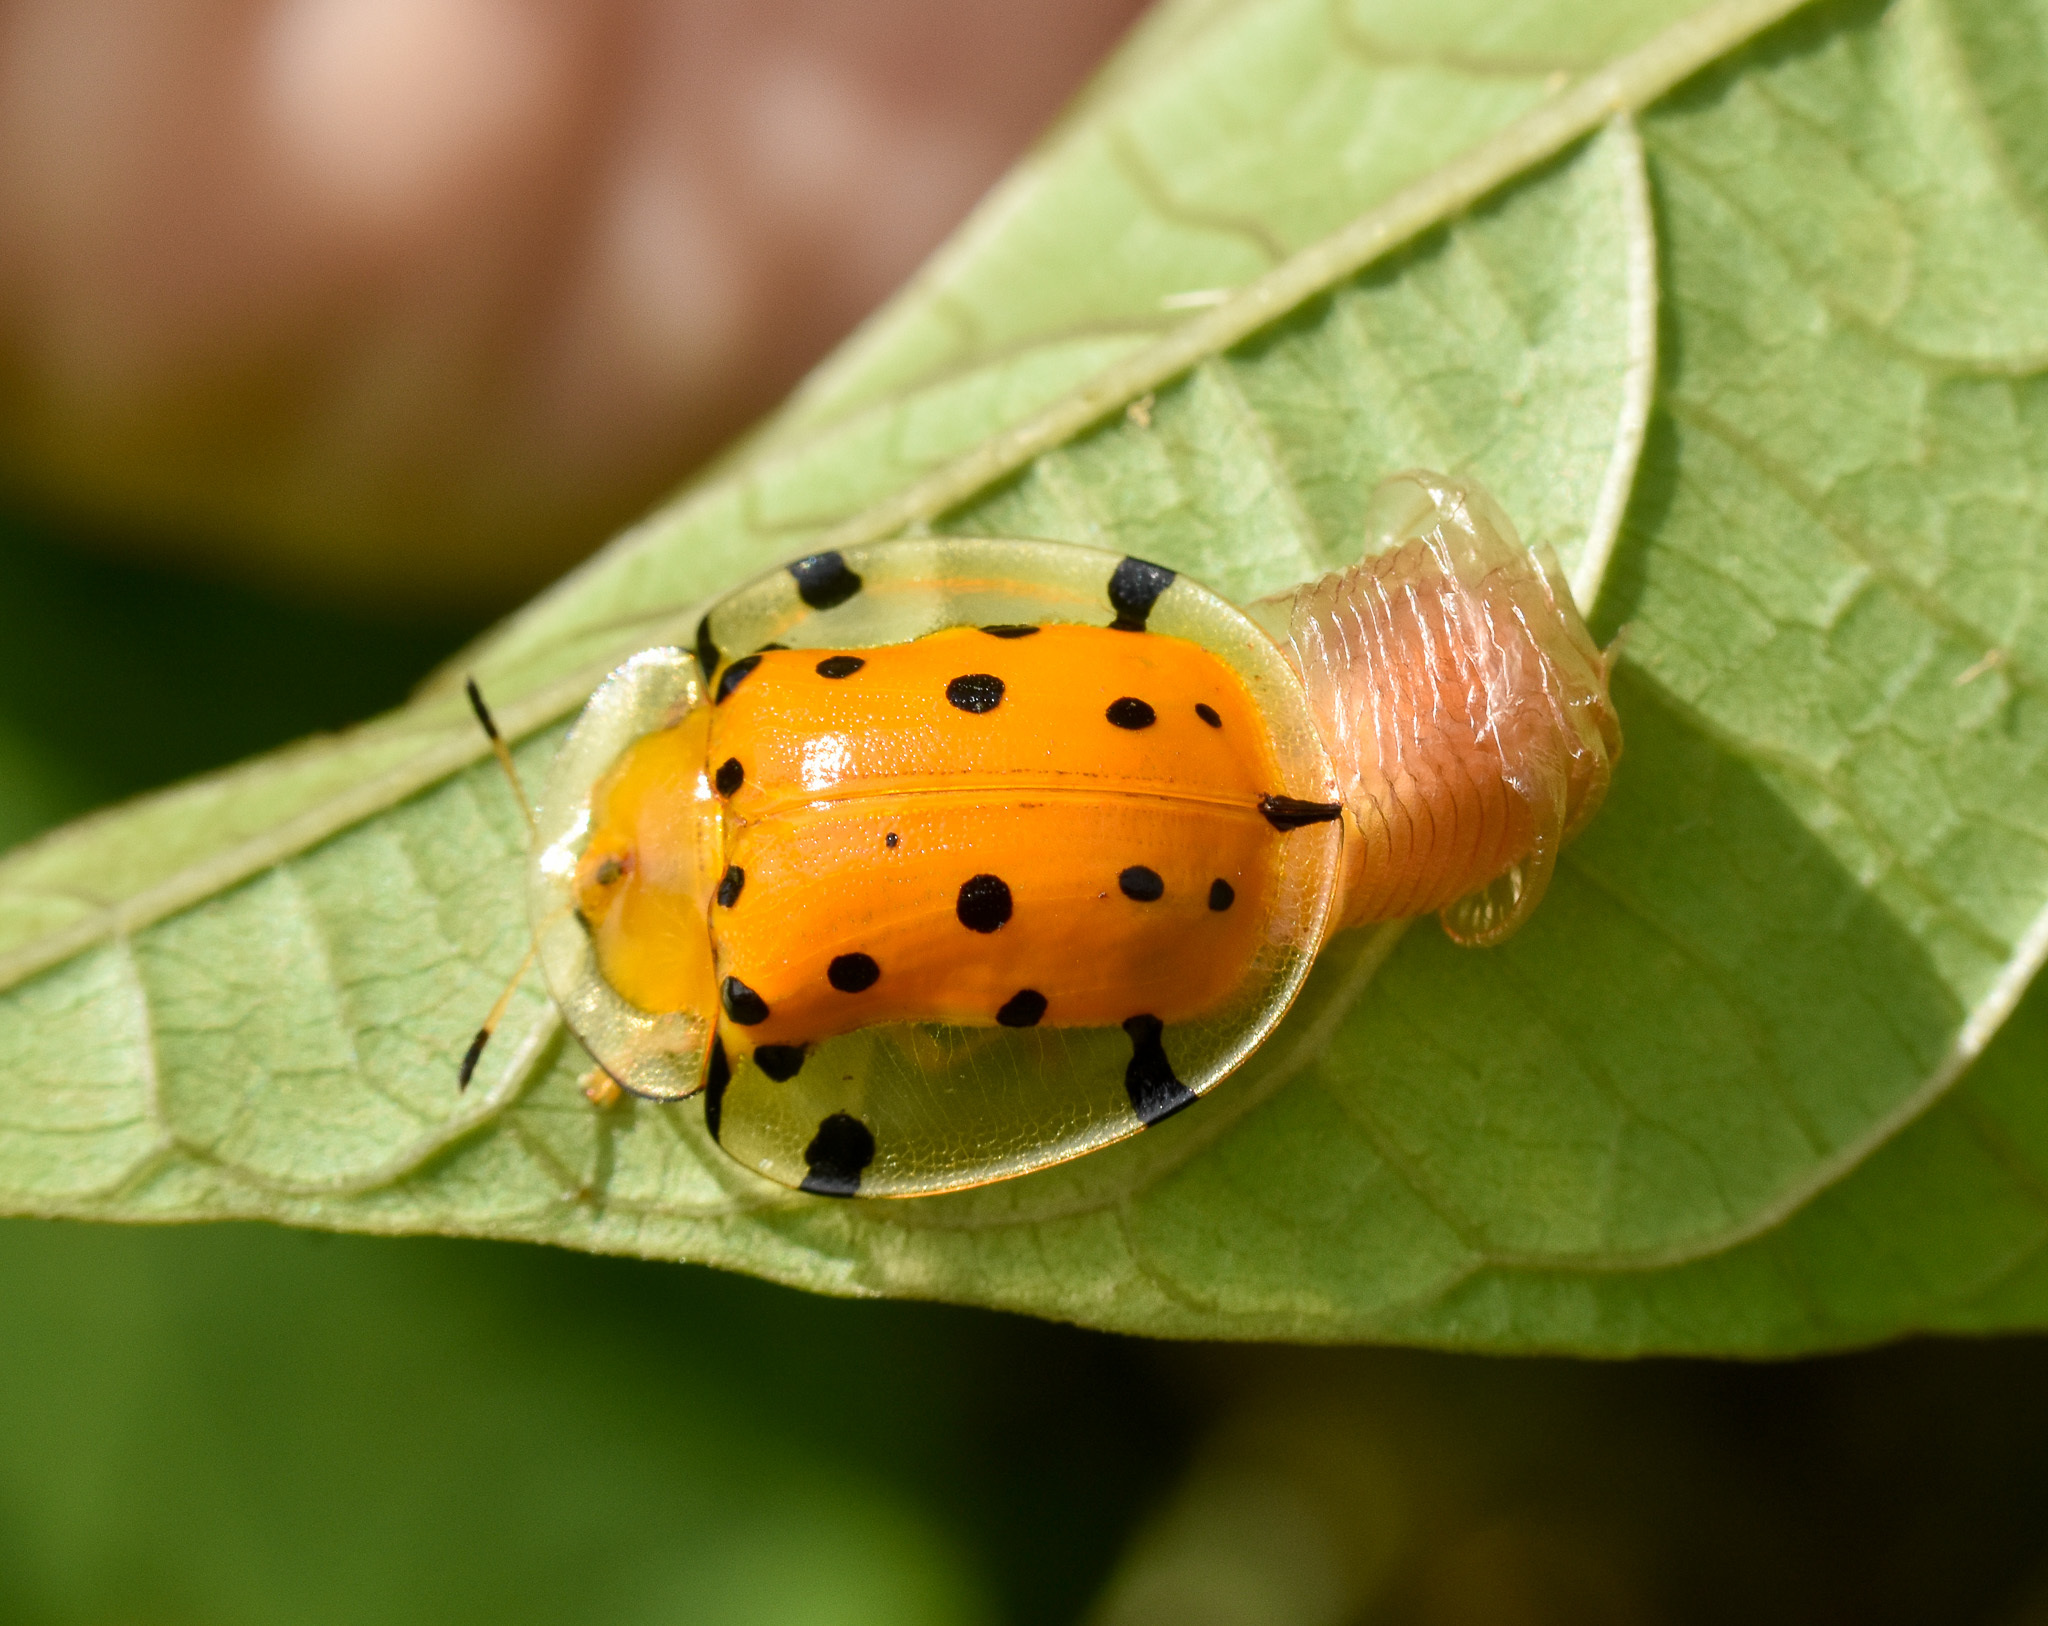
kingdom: Animalia
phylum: Arthropoda
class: Insecta
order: Coleoptera
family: Chrysomelidae
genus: Aspidimorpha
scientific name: Aspidimorpha miliaris
